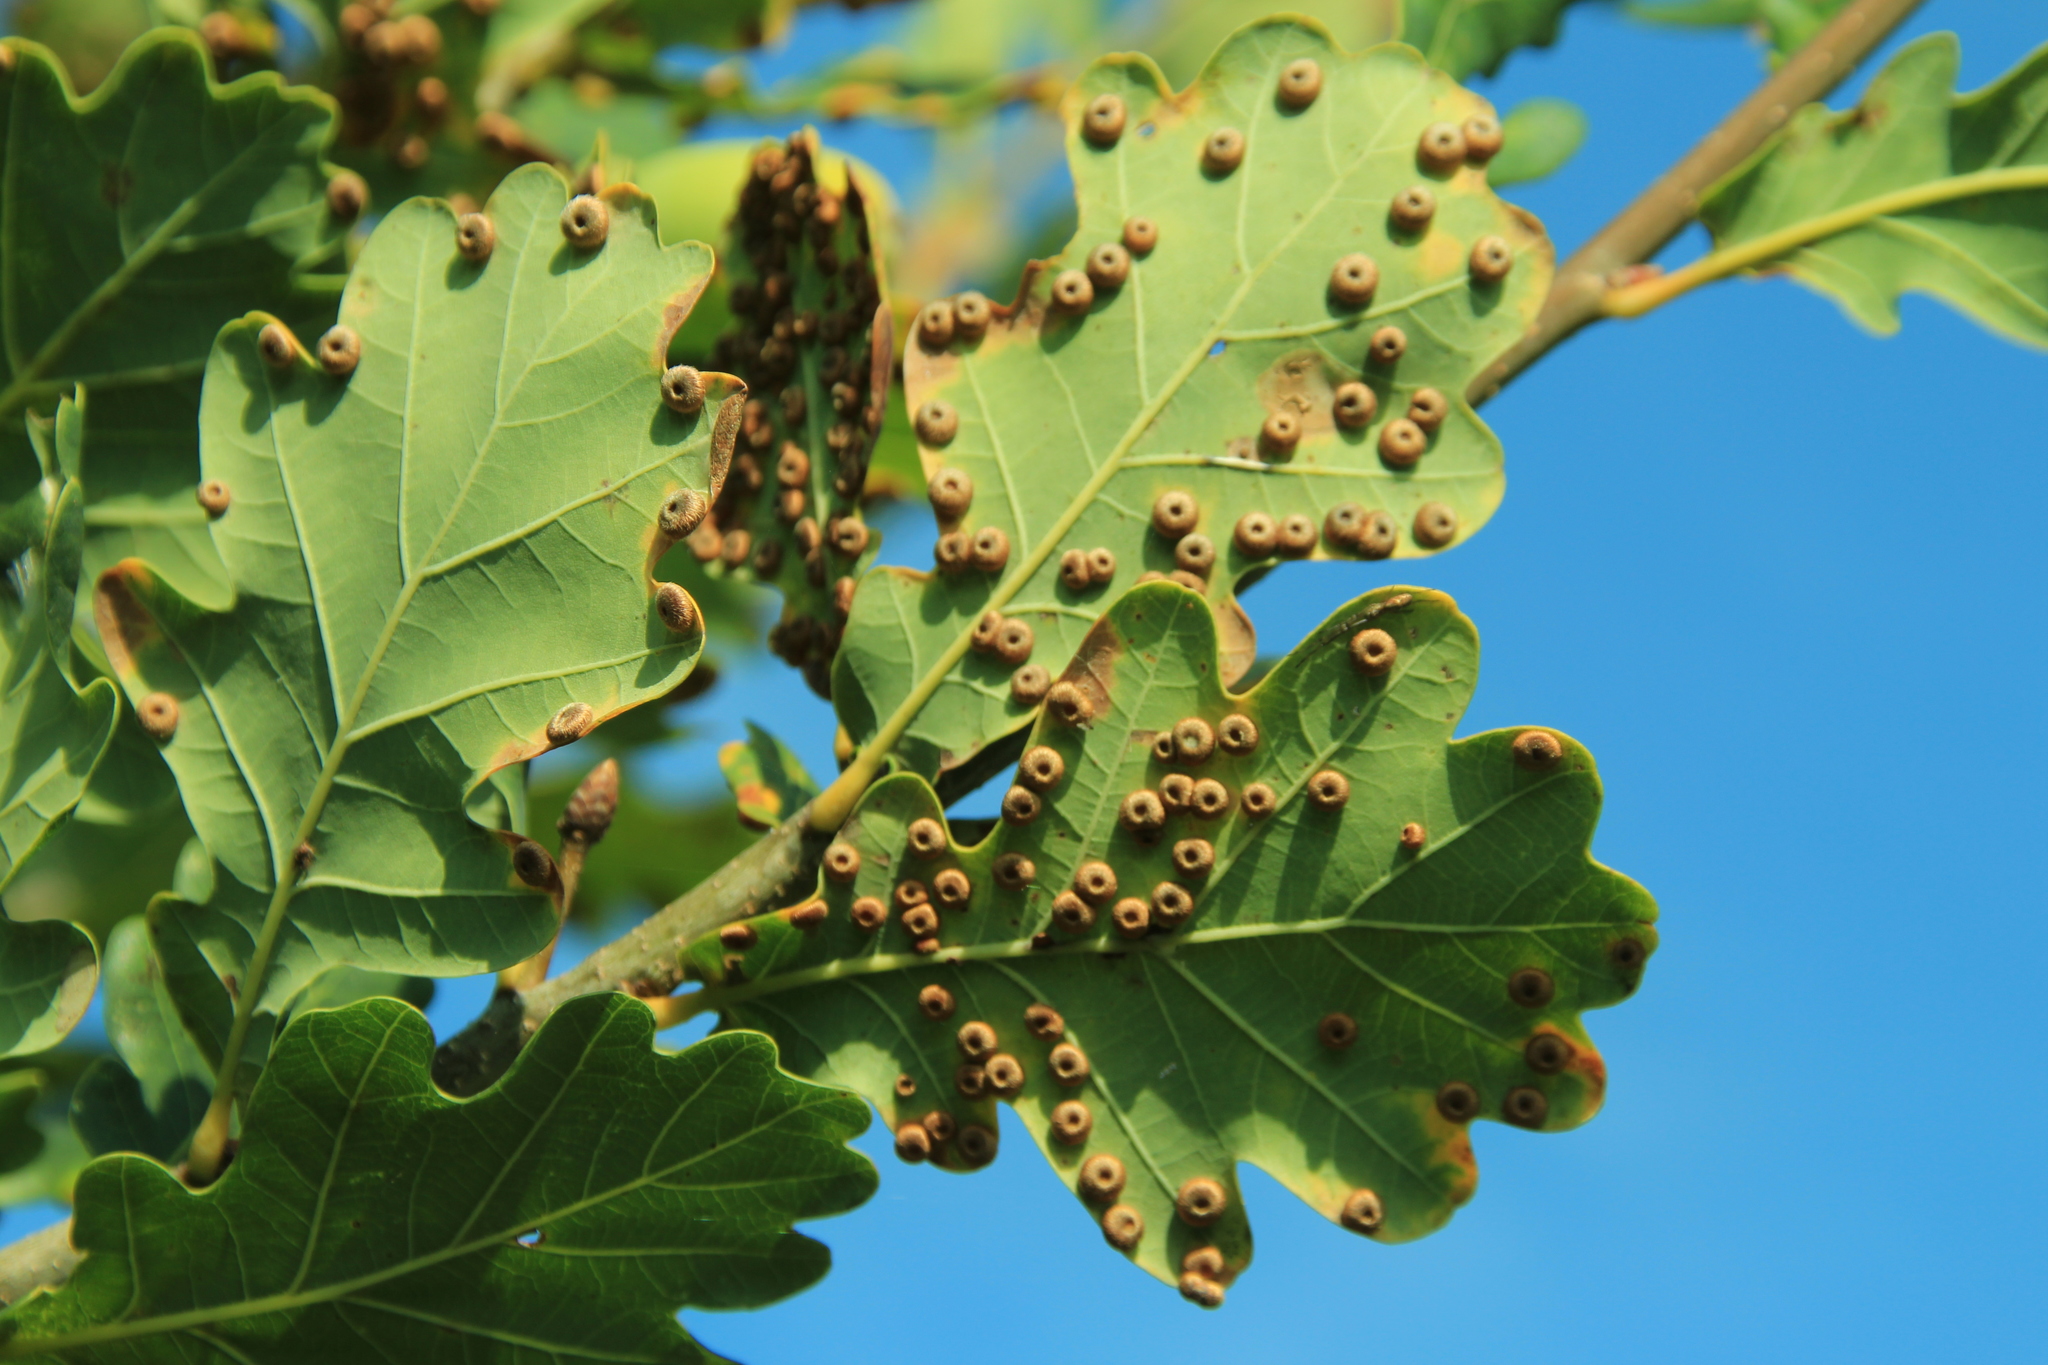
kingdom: Animalia
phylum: Arthropoda
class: Insecta
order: Hymenoptera
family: Cynipidae
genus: Neuroterus
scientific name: Neuroterus numismalis
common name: Silk-button spangle gall
